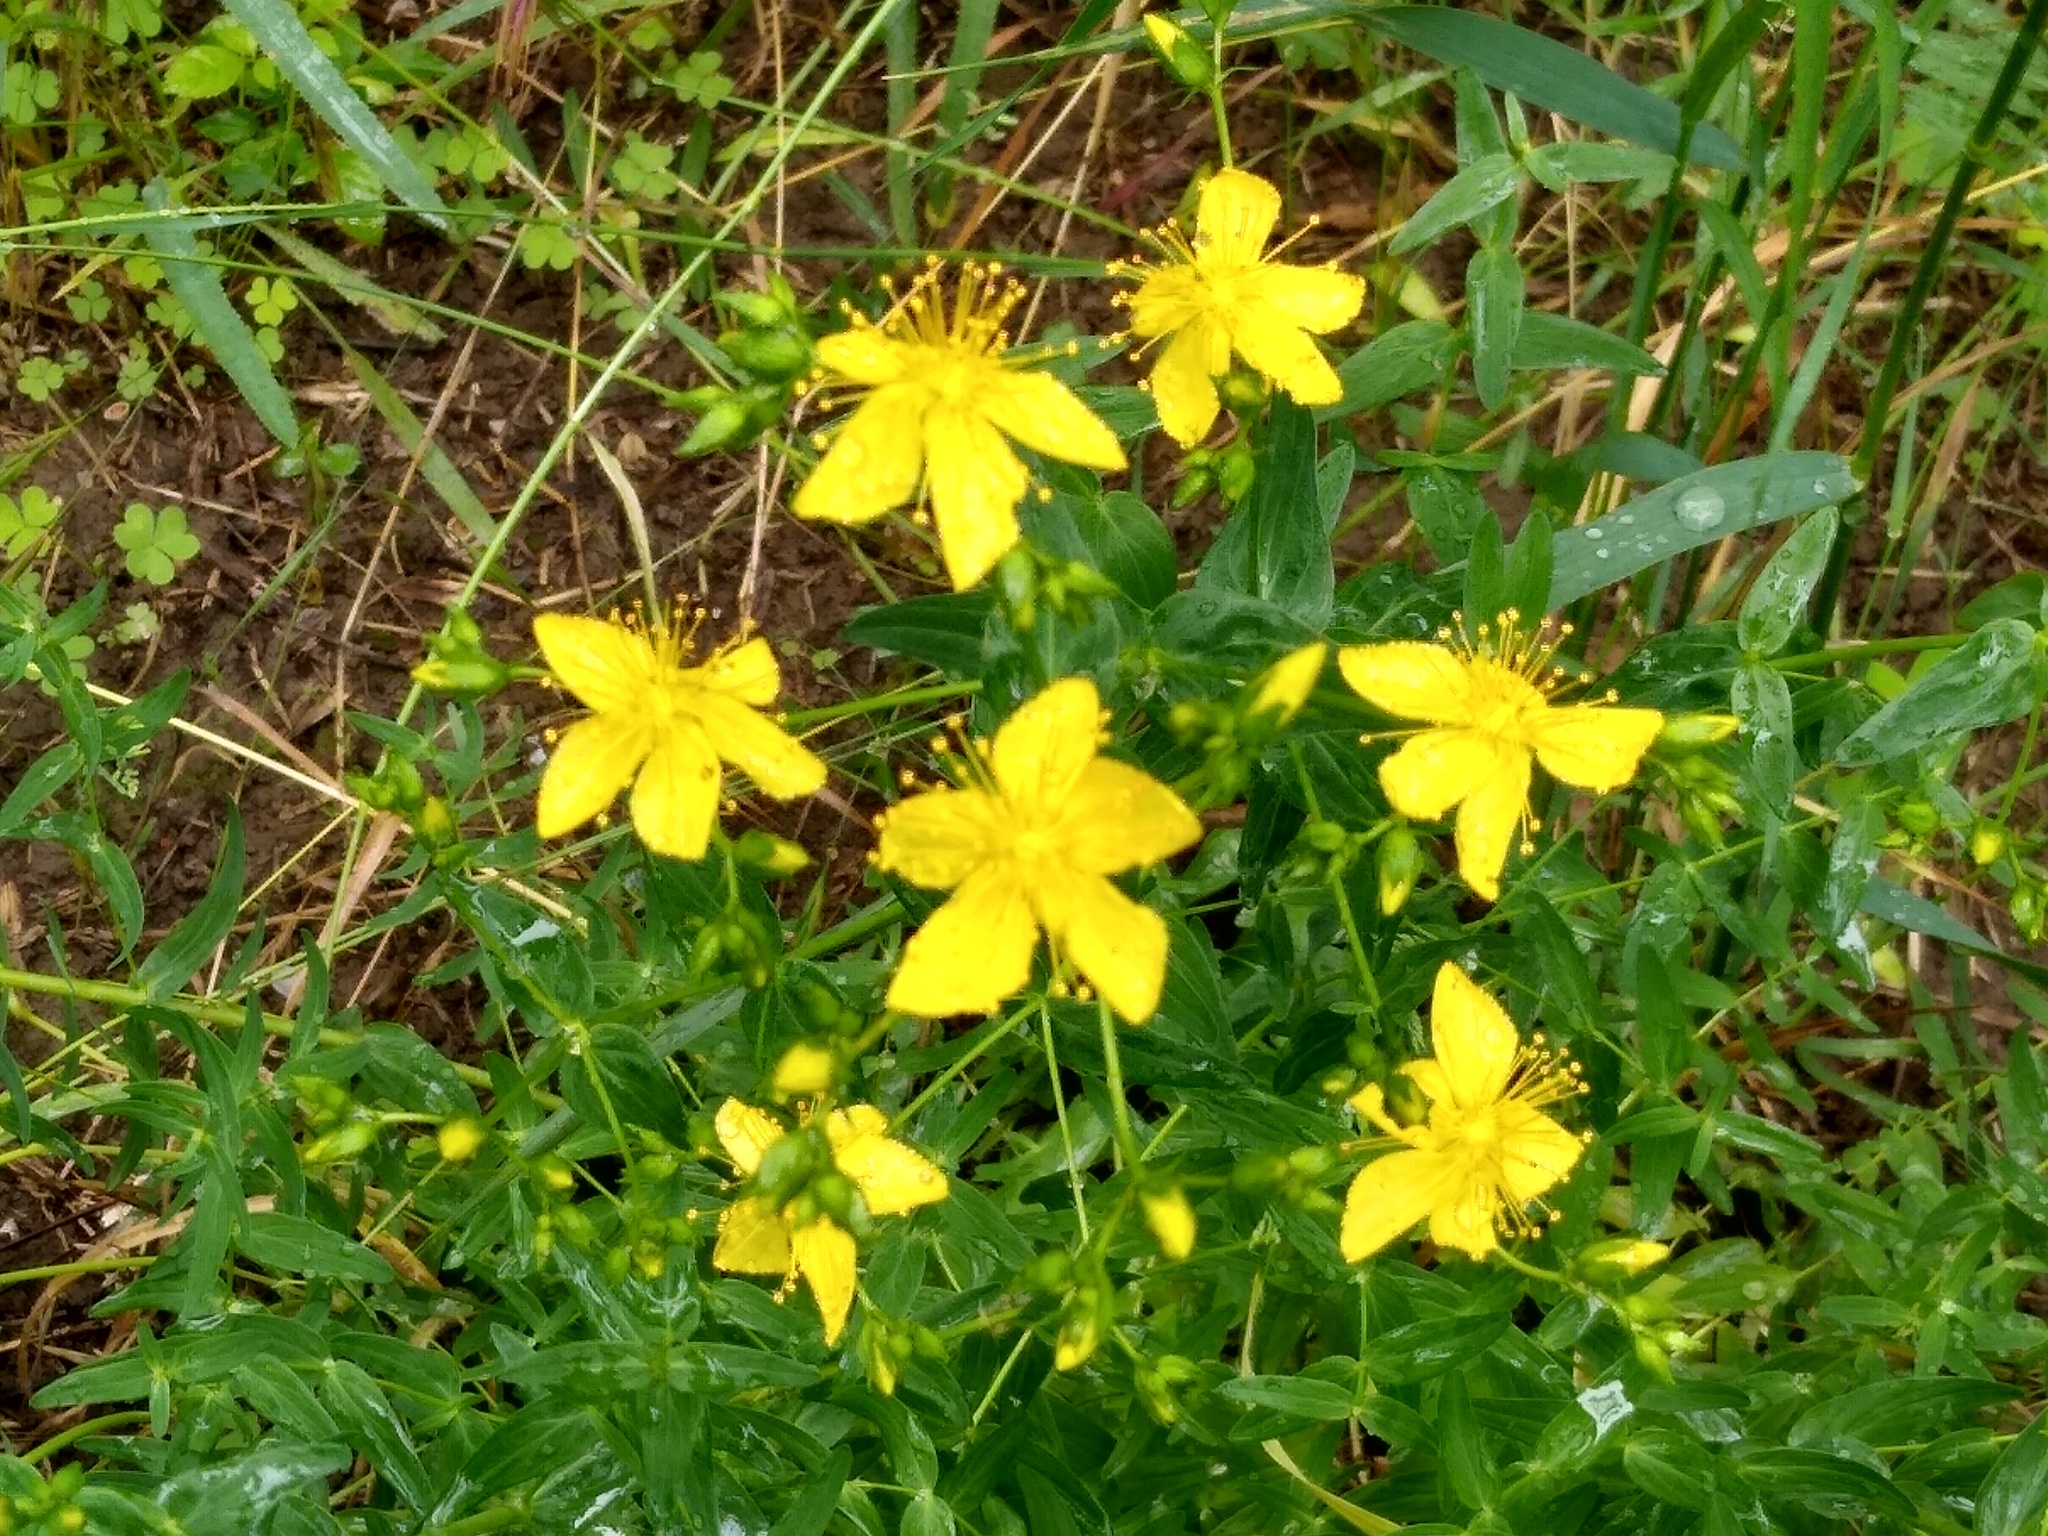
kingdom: Plantae
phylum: Tracheophyta
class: Magnoliopsida
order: Malpighiales
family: Hypericaceae
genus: Hypericum
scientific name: Hypericum elegans
